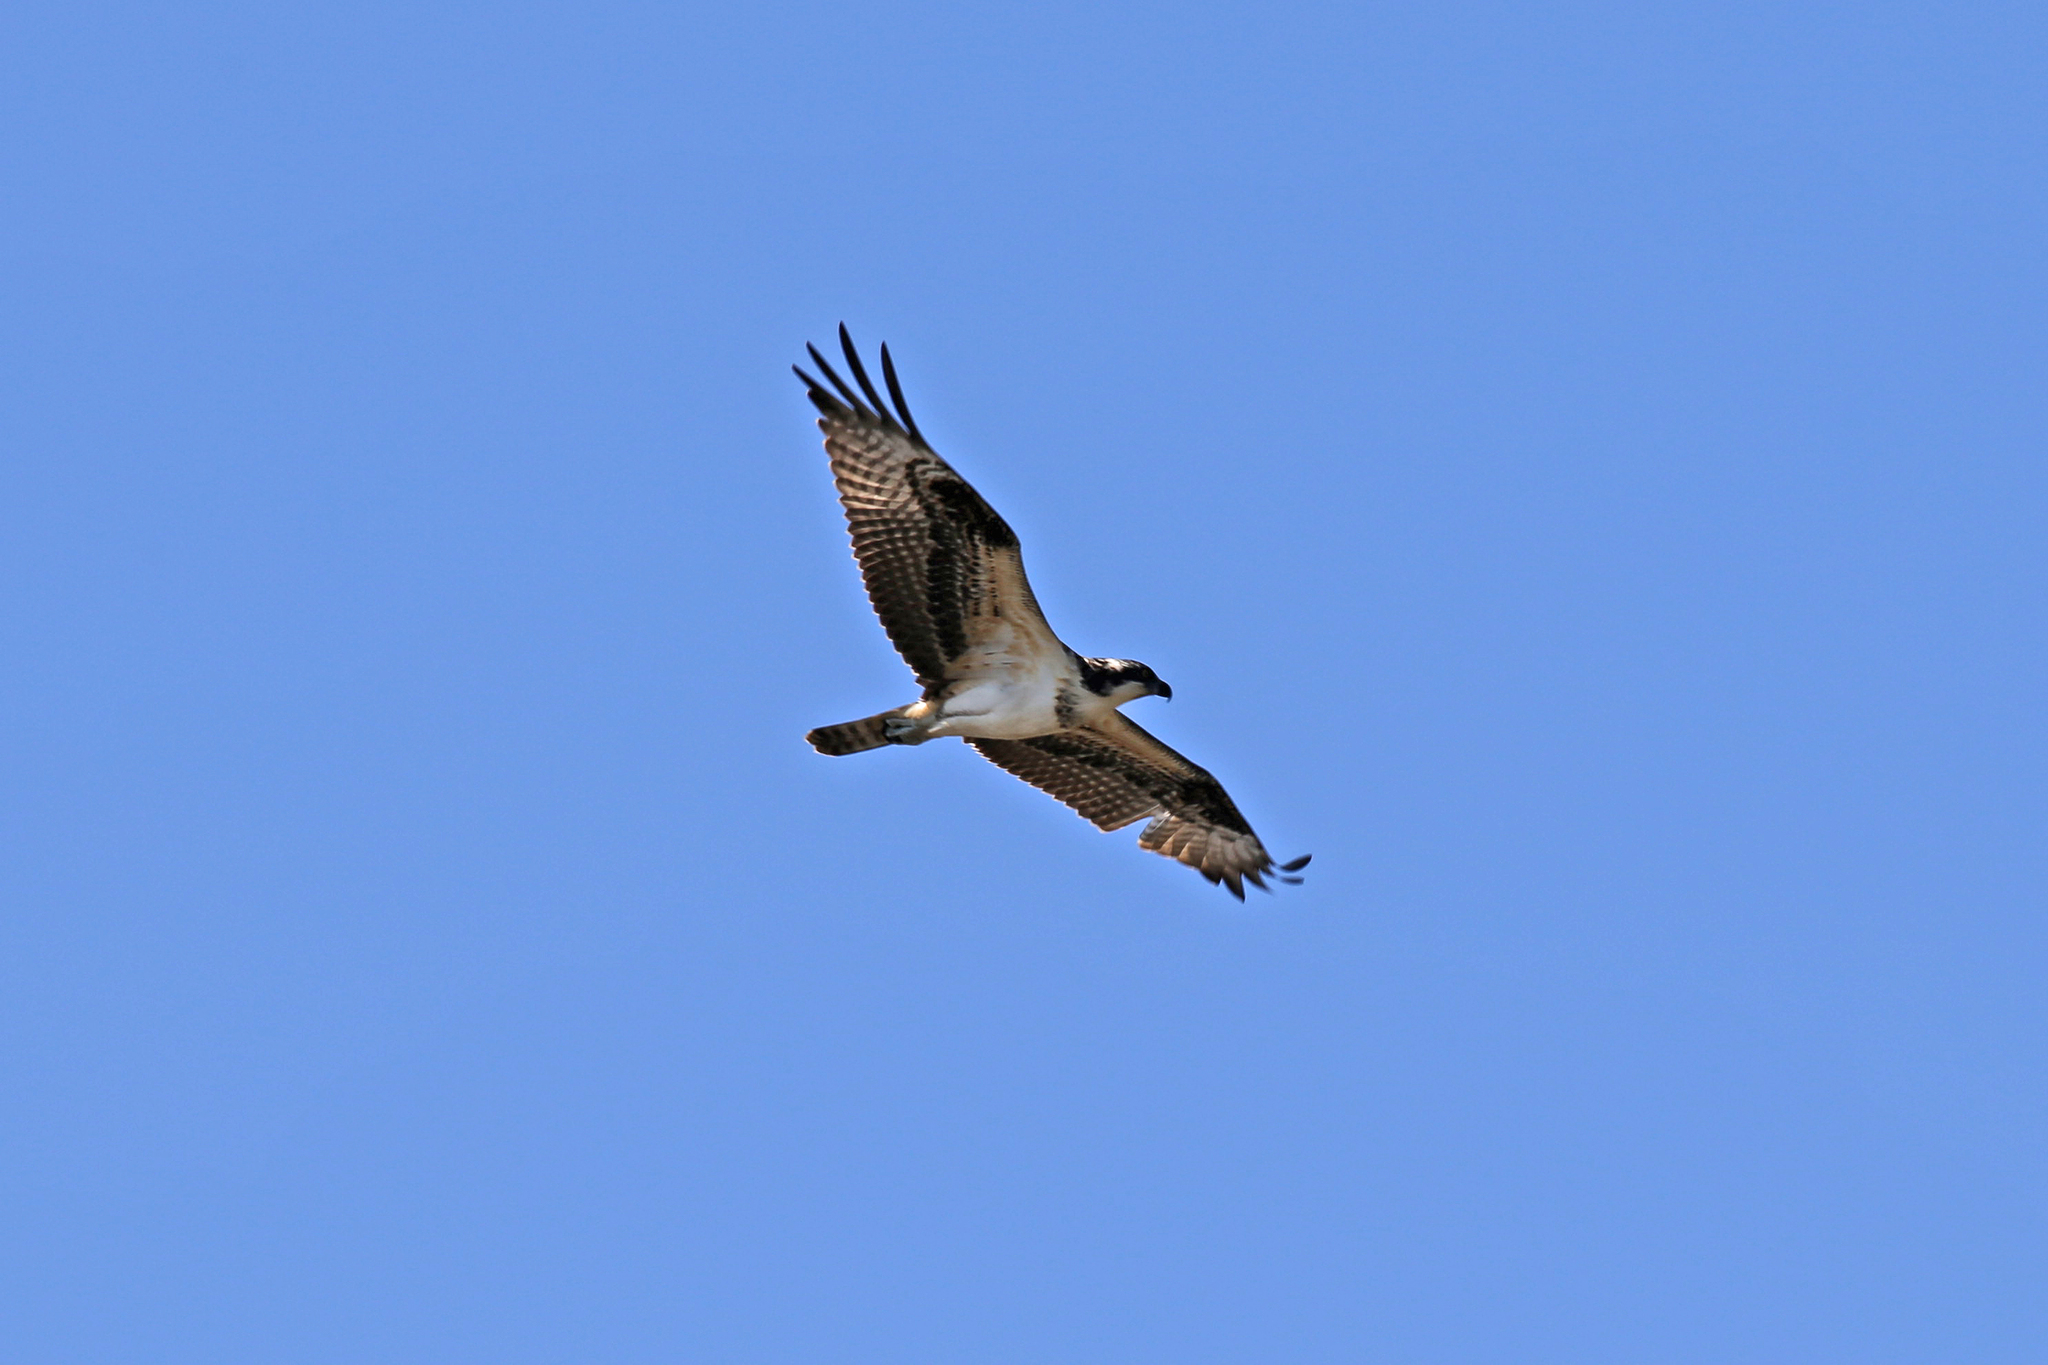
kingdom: Animalia
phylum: Chordata
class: Aves
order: Accipitriformes
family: Pandionidae
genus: Pandion
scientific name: Pandion haliaetus
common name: Osprey
